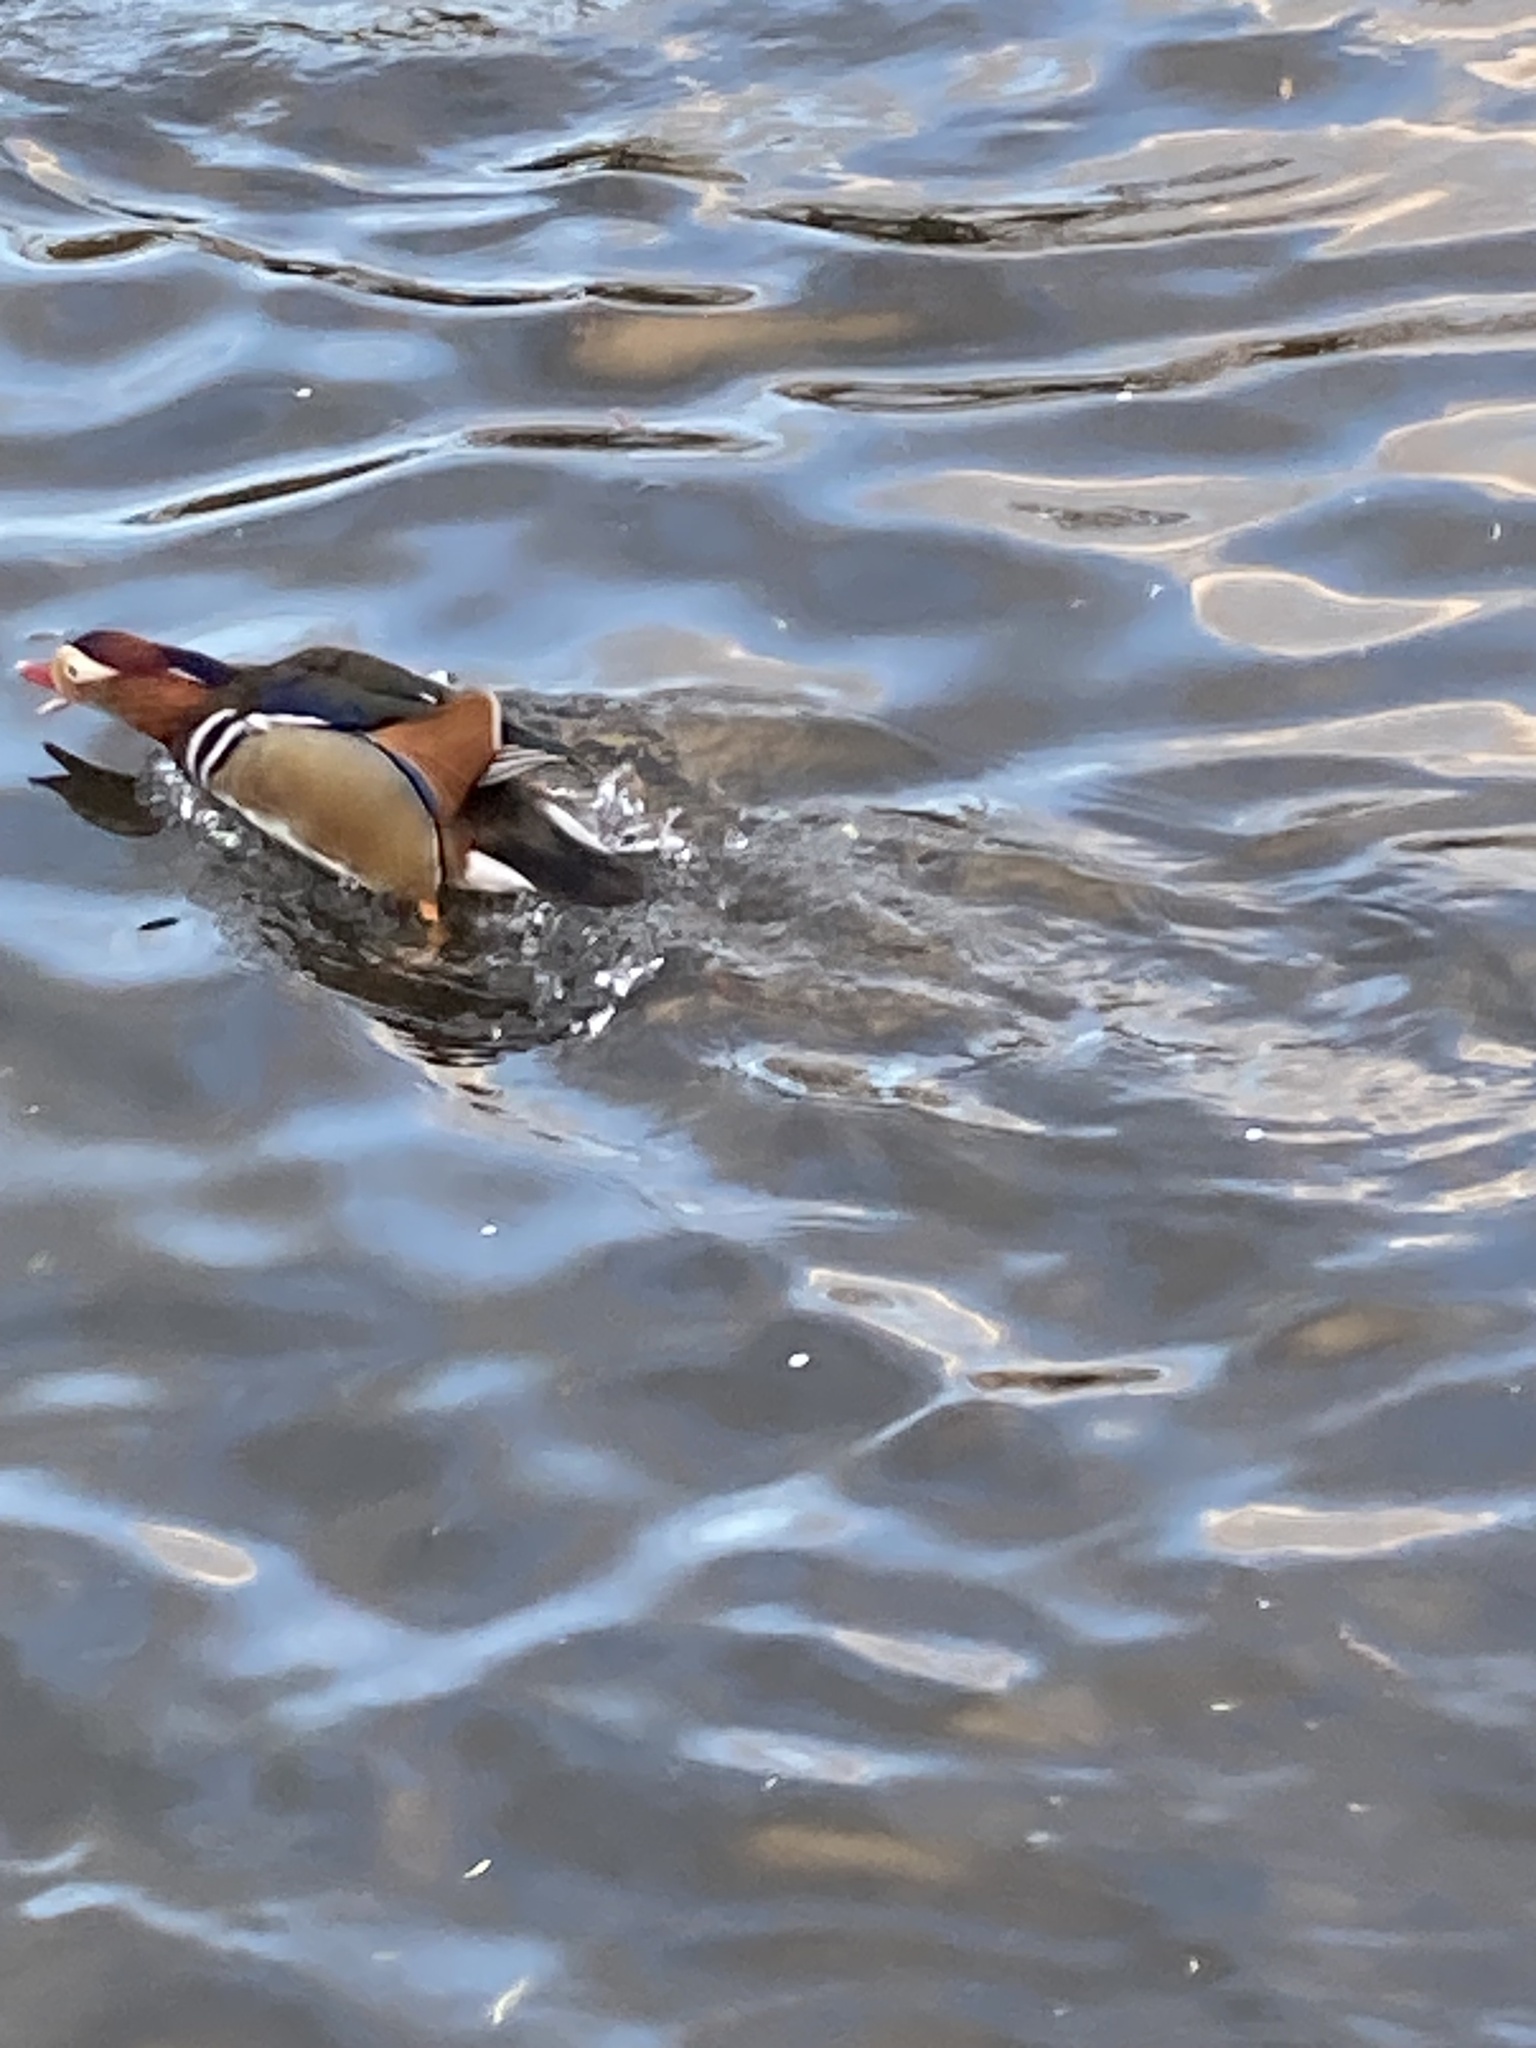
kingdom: Animalia
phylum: Chordata
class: Aves
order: Anseriformes
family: Anatidae
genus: Aix
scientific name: Aix galericulata
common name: Mandarin duck
